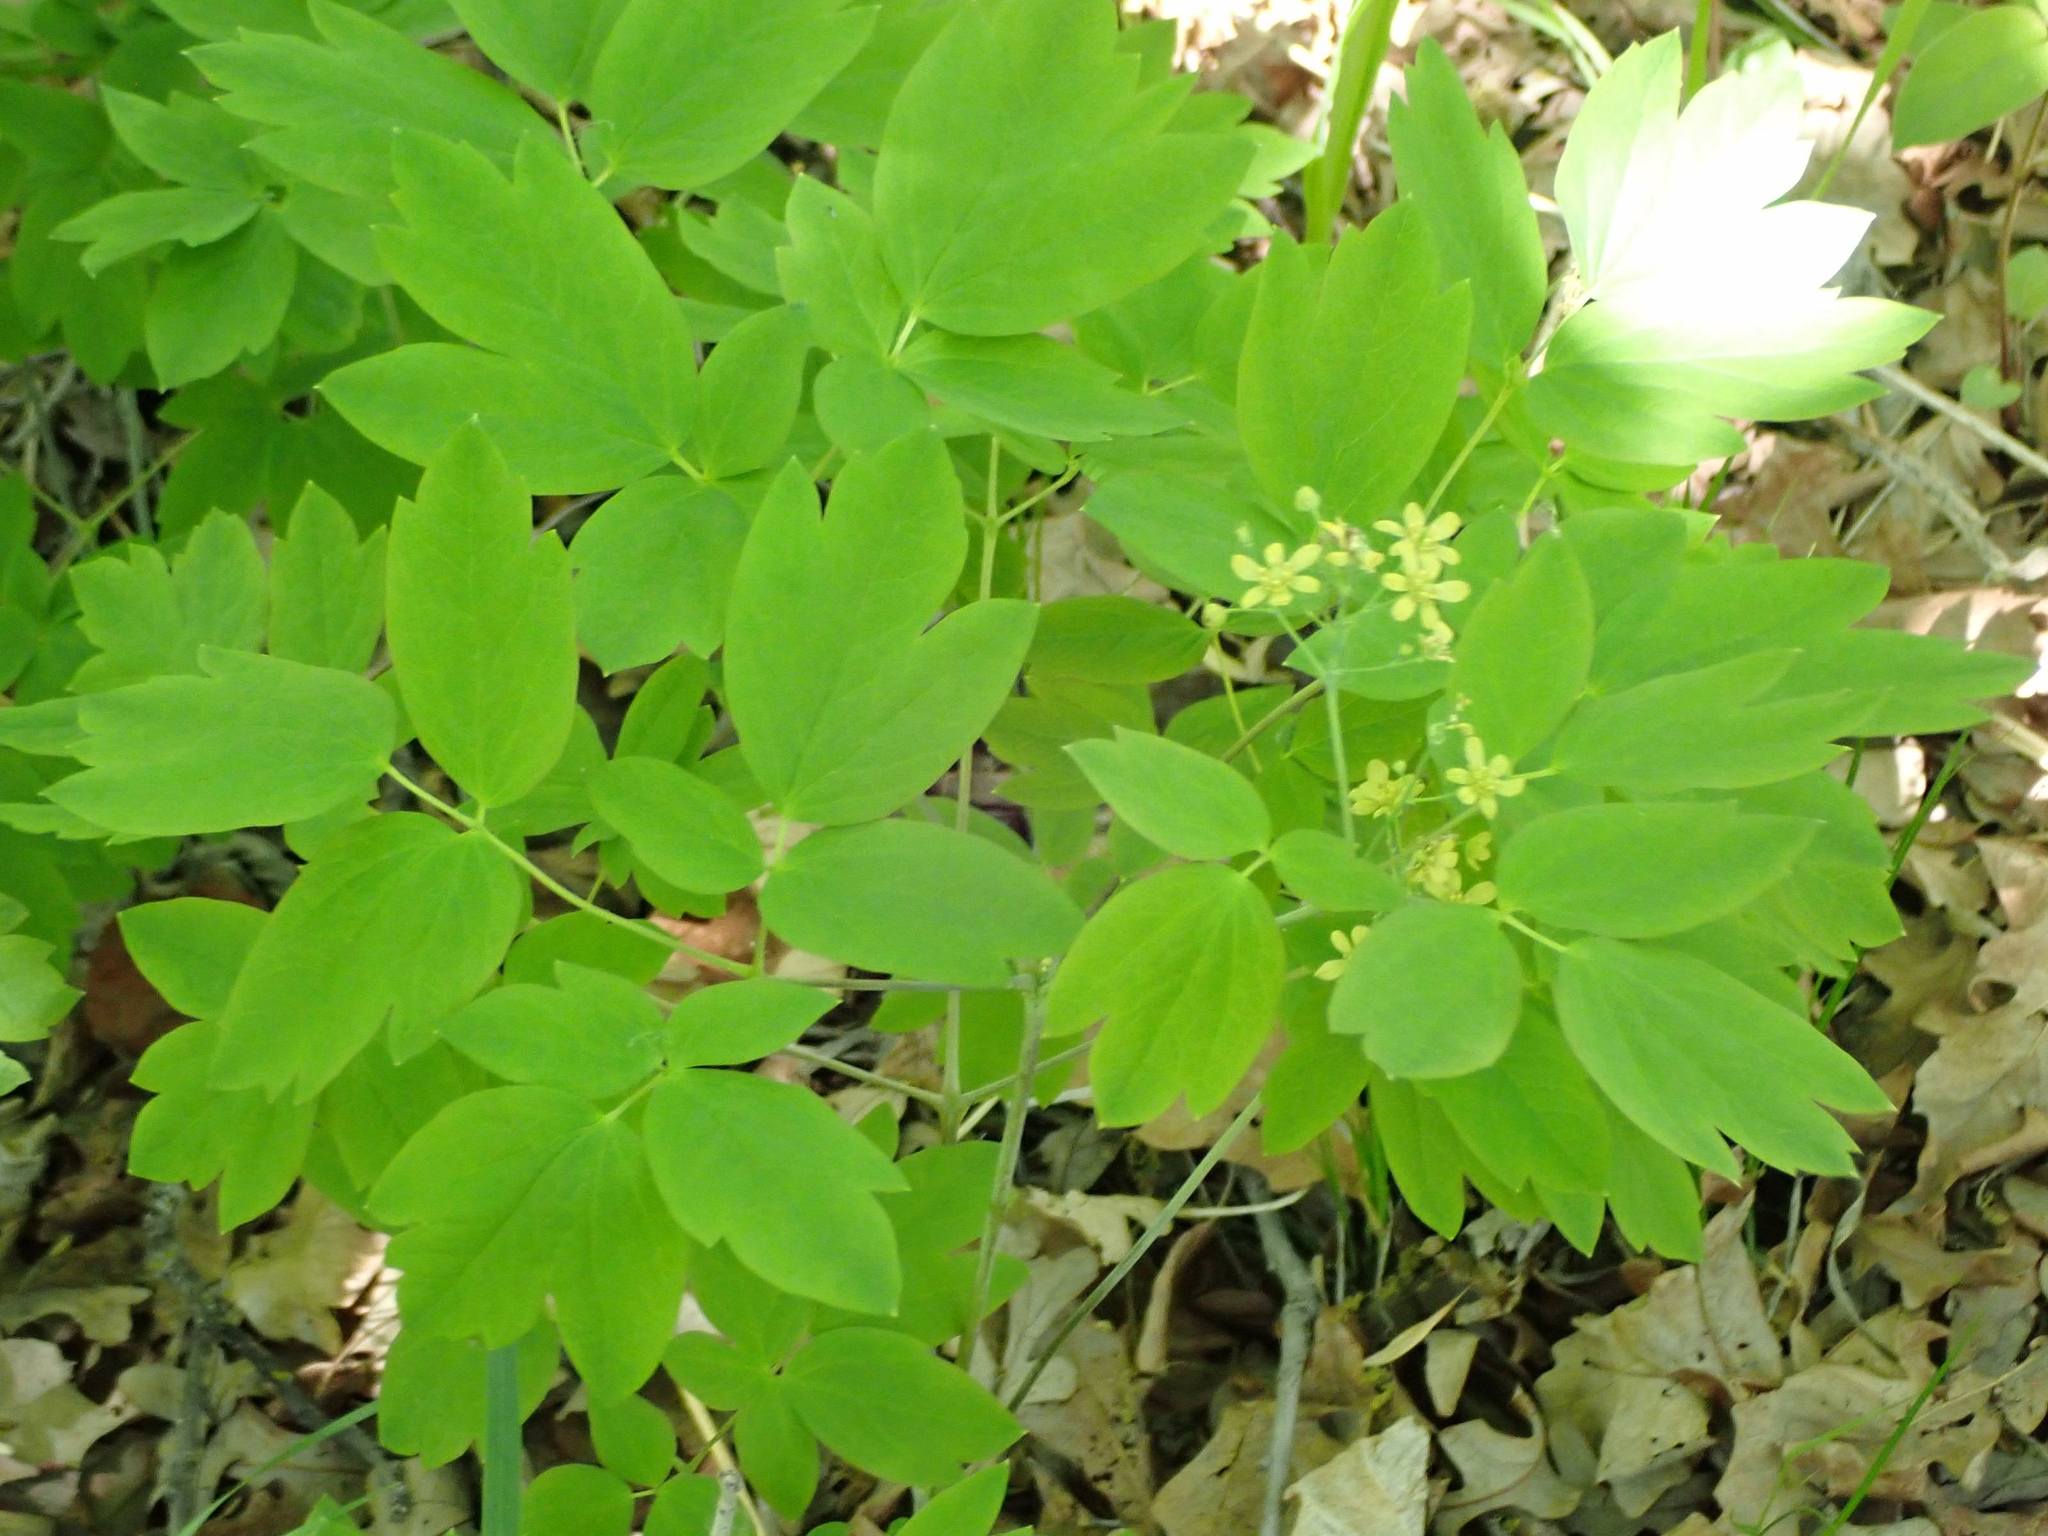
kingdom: Plantae
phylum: Tracheophyta
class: Magnoliopsida
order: Ranunculales
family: Berberidaceae
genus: Caulophyllum
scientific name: Caulophyllum thalictroides
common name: Blue cohosh
